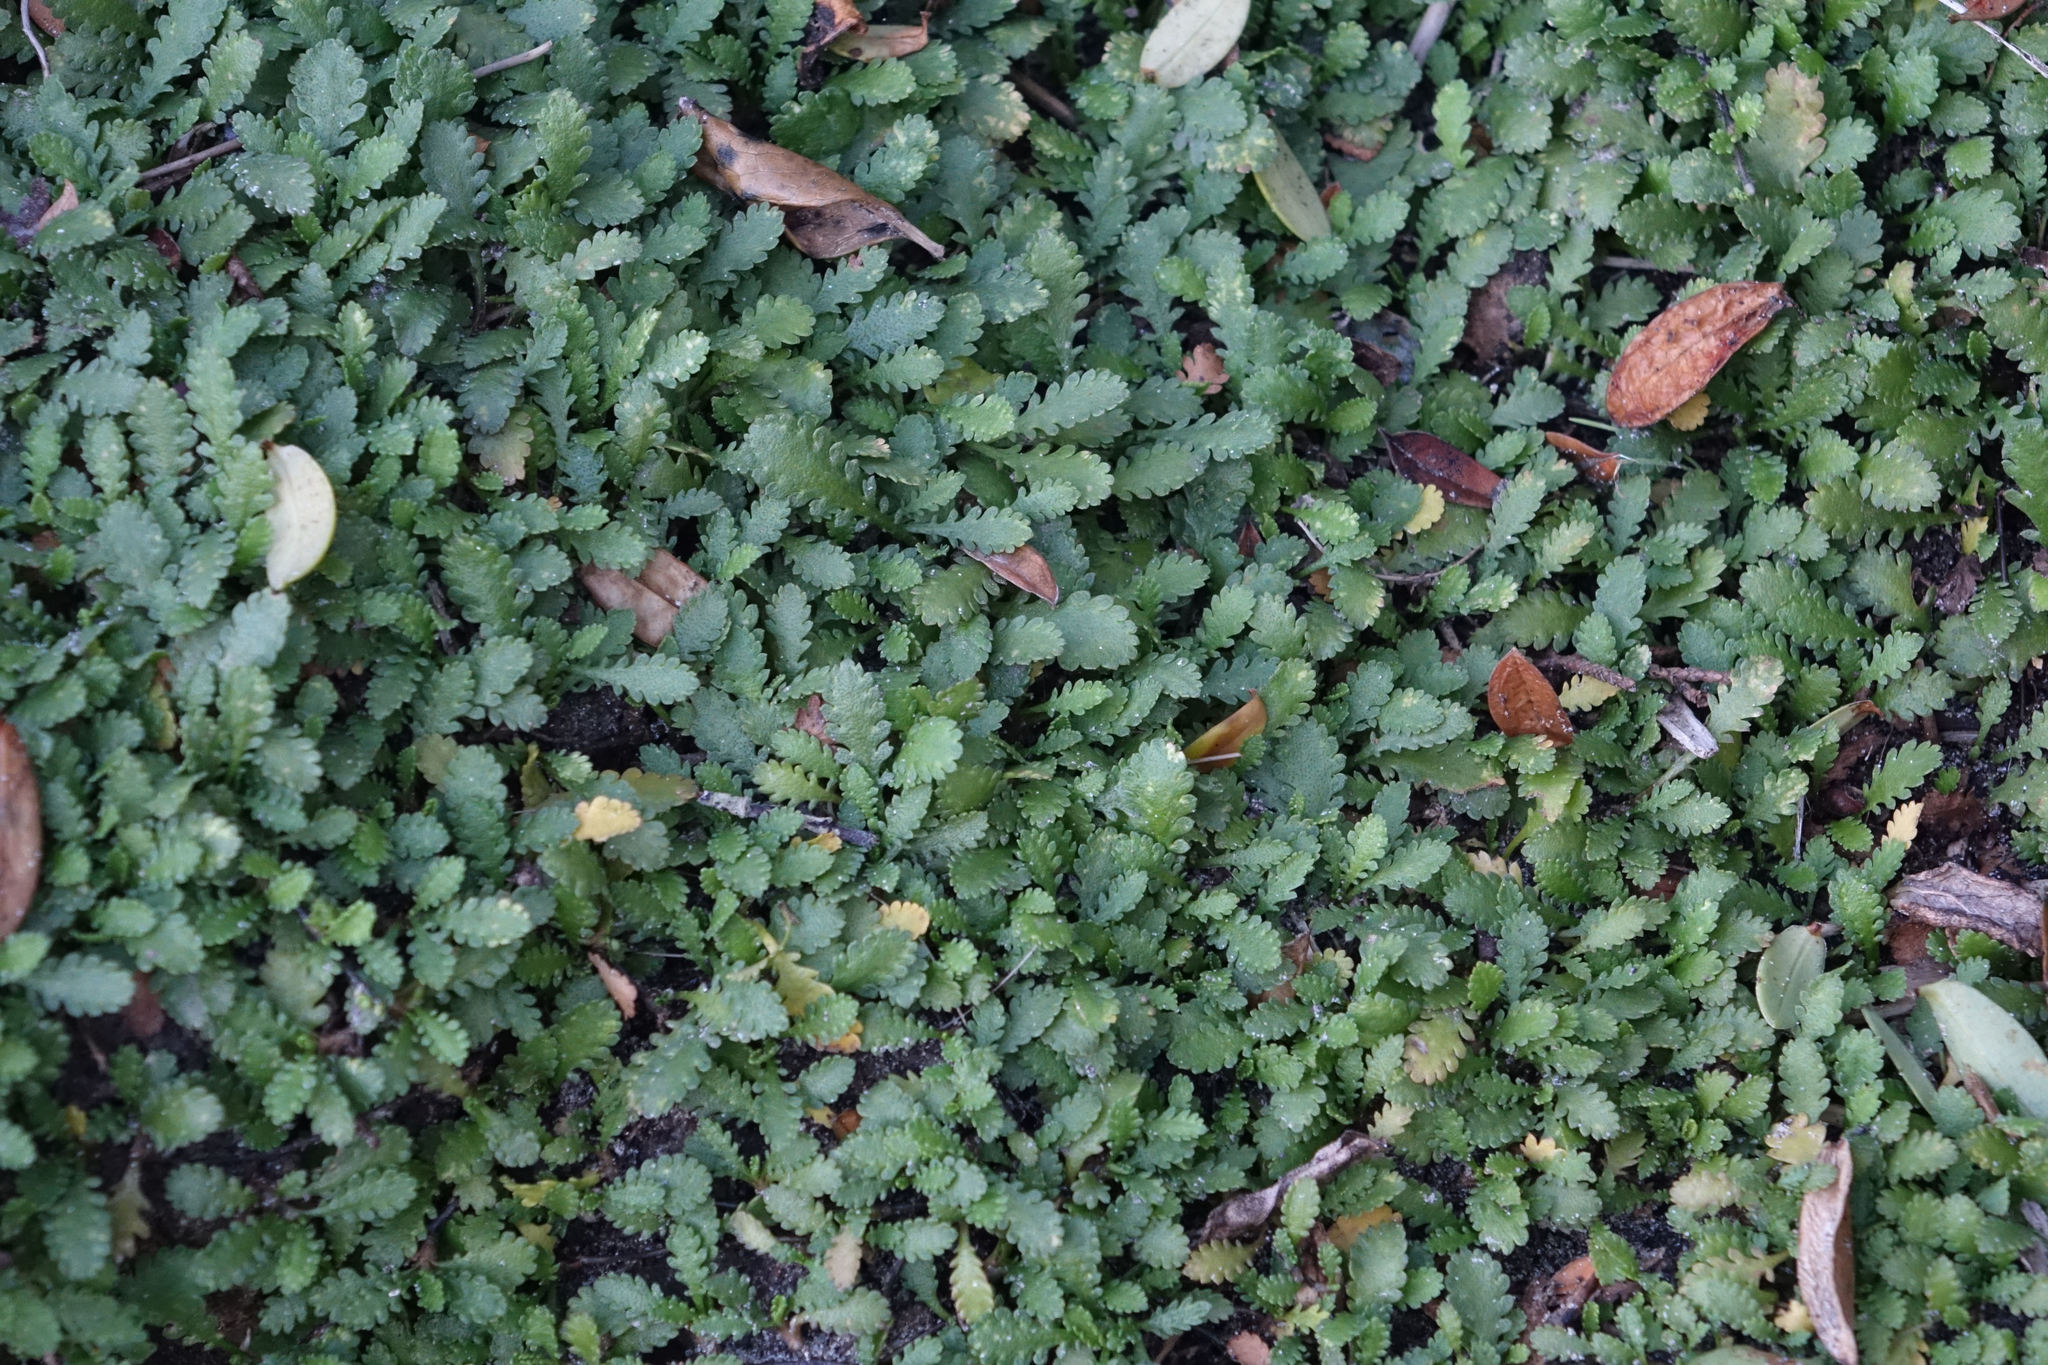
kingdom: Plantae
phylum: Tracheophyta
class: Magnoliopsida
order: Asterales
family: Asteraceae
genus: Leptinella
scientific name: Leptinella dioica
